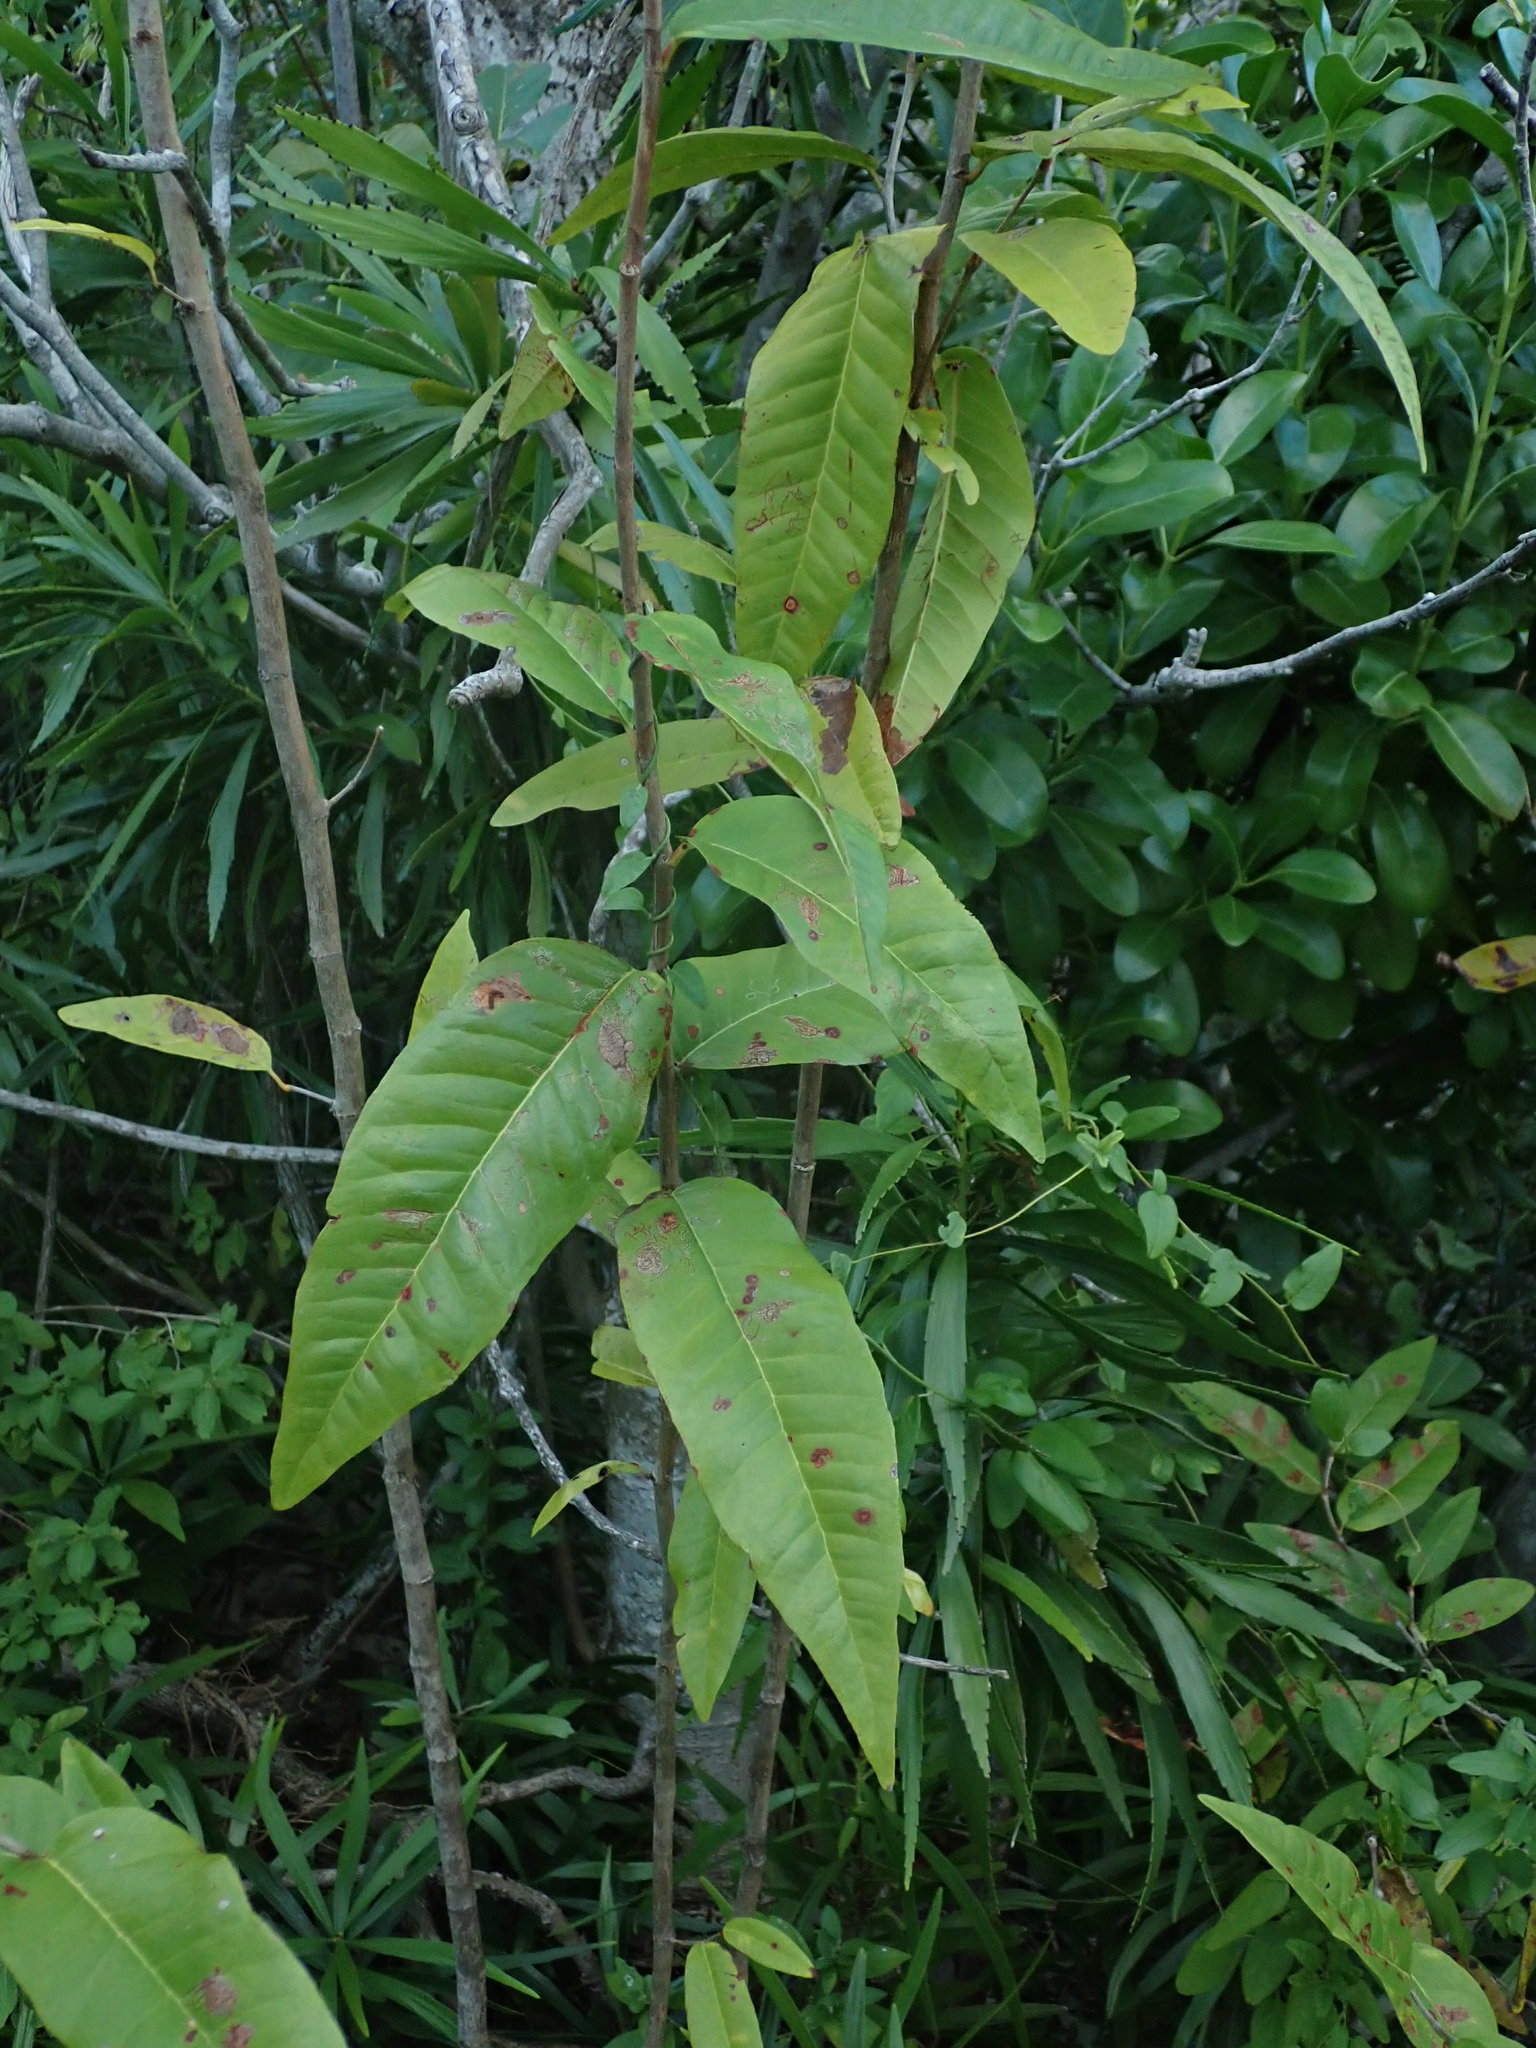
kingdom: Plantae
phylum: Tracheophyta
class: Magnoliopsida
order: Caryophyllales
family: Polygonaceae
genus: Coccoloba
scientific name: Coccoloba microstachya
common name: Puckout
